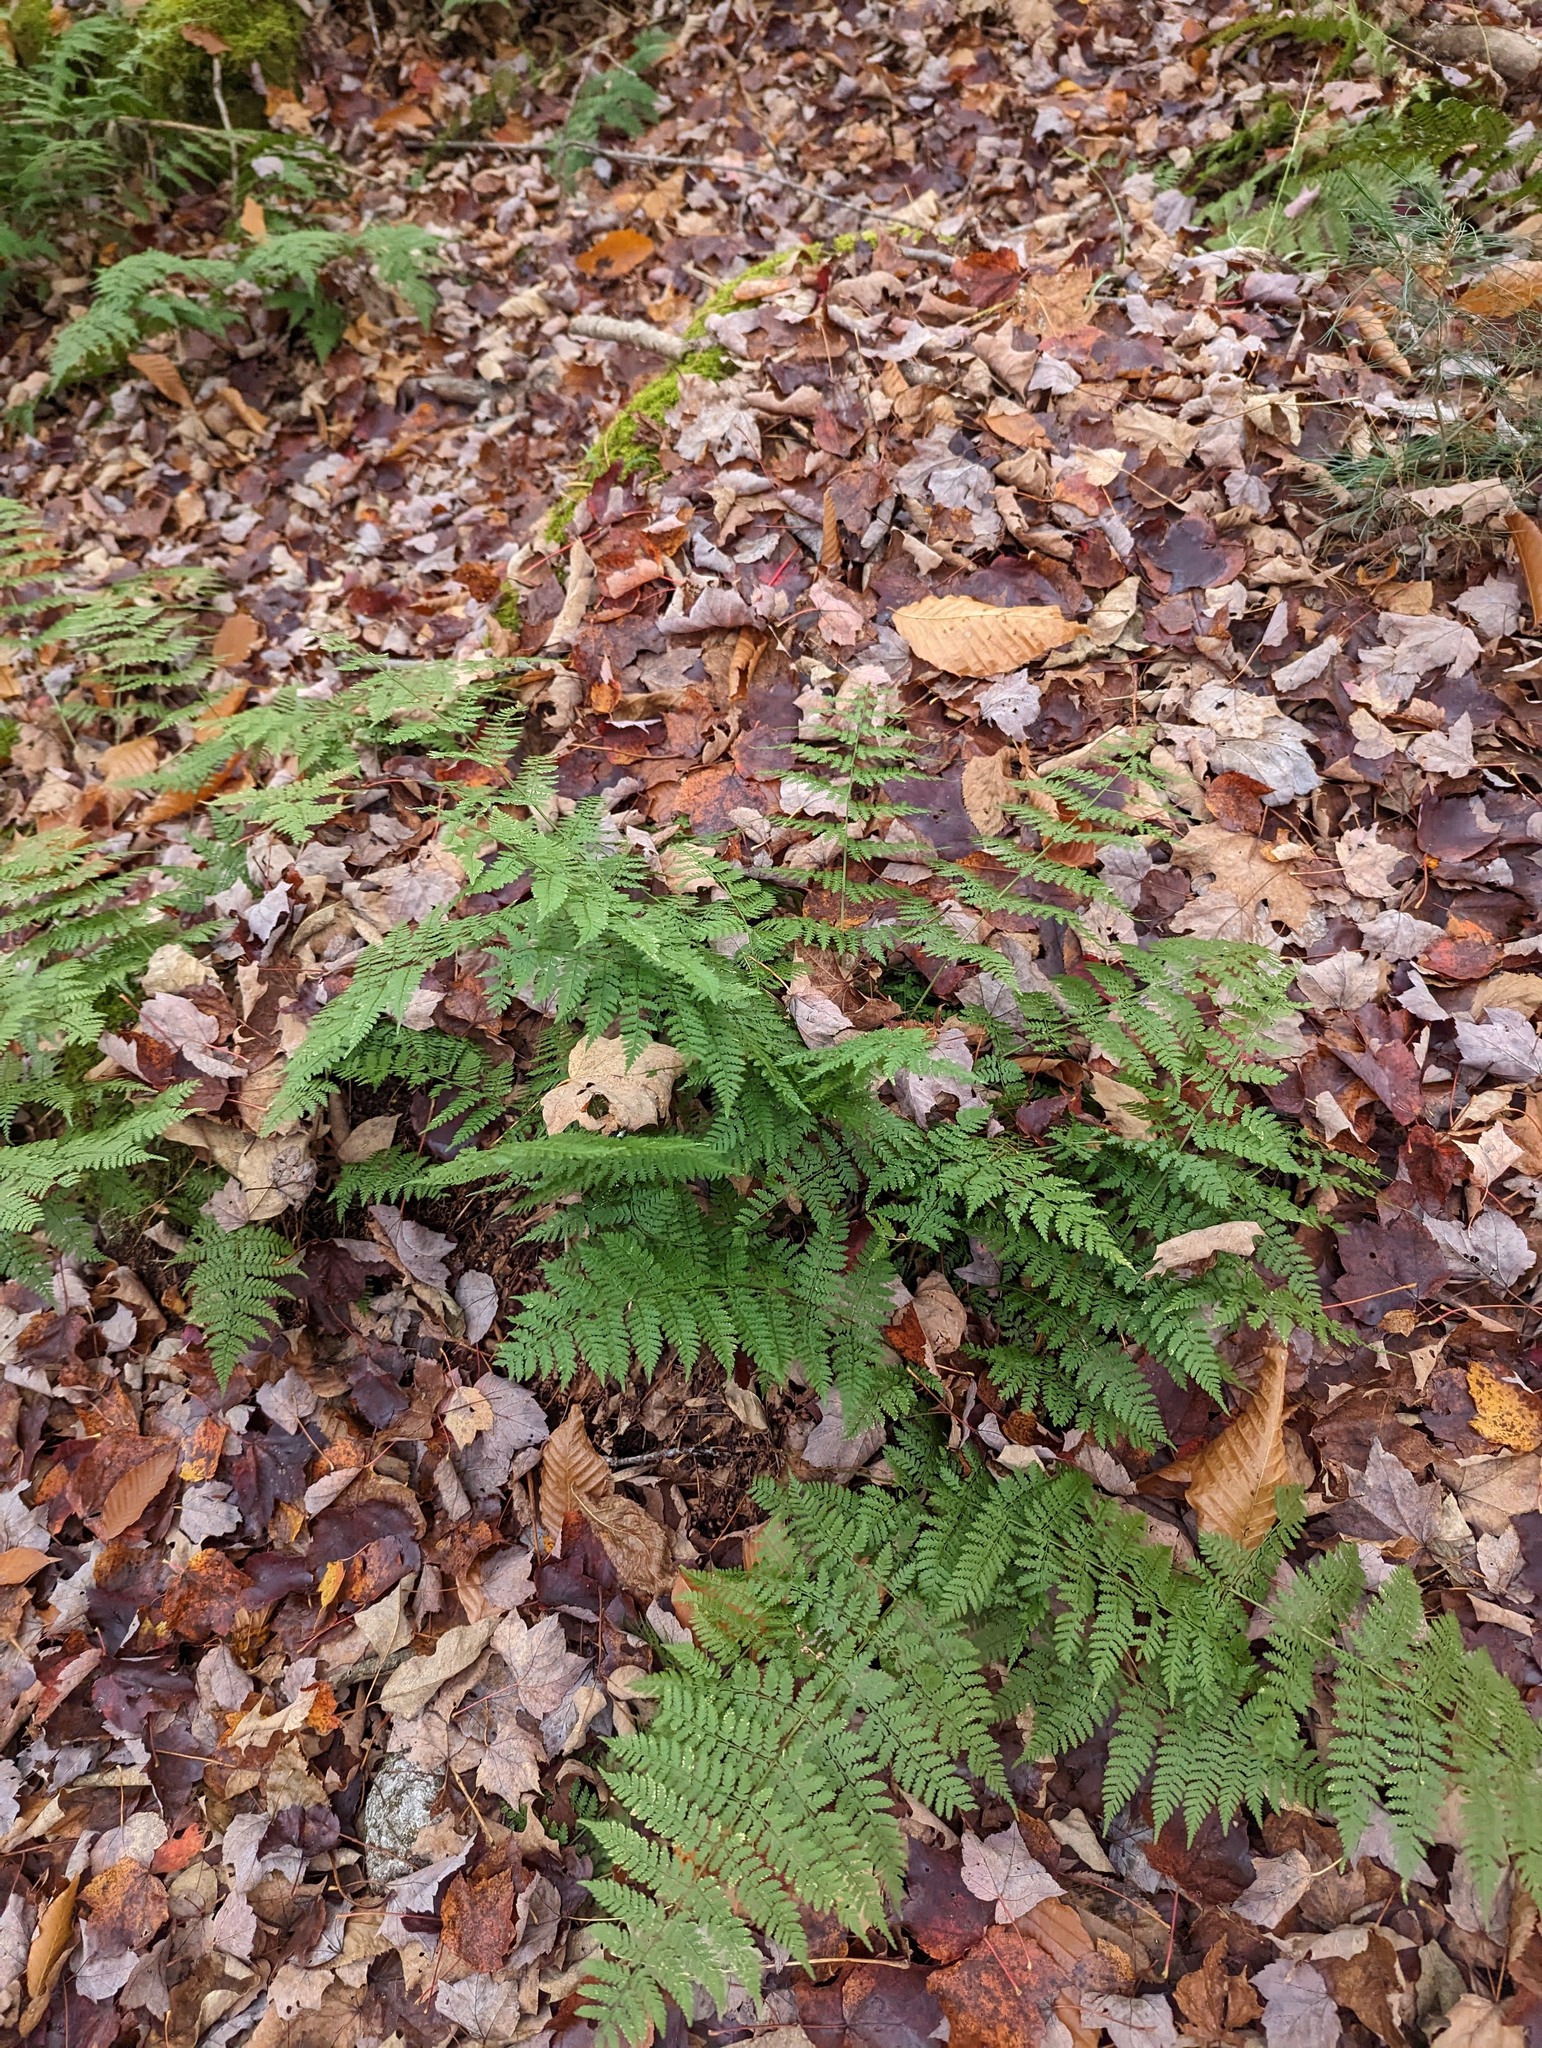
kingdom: Plantae
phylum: Tracheophyta
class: Polypodiopsida
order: Polypodiales
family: Dryopteridaceae
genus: Dryopteris
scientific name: Dryopteris intermedia
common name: Evergreen wood fern
